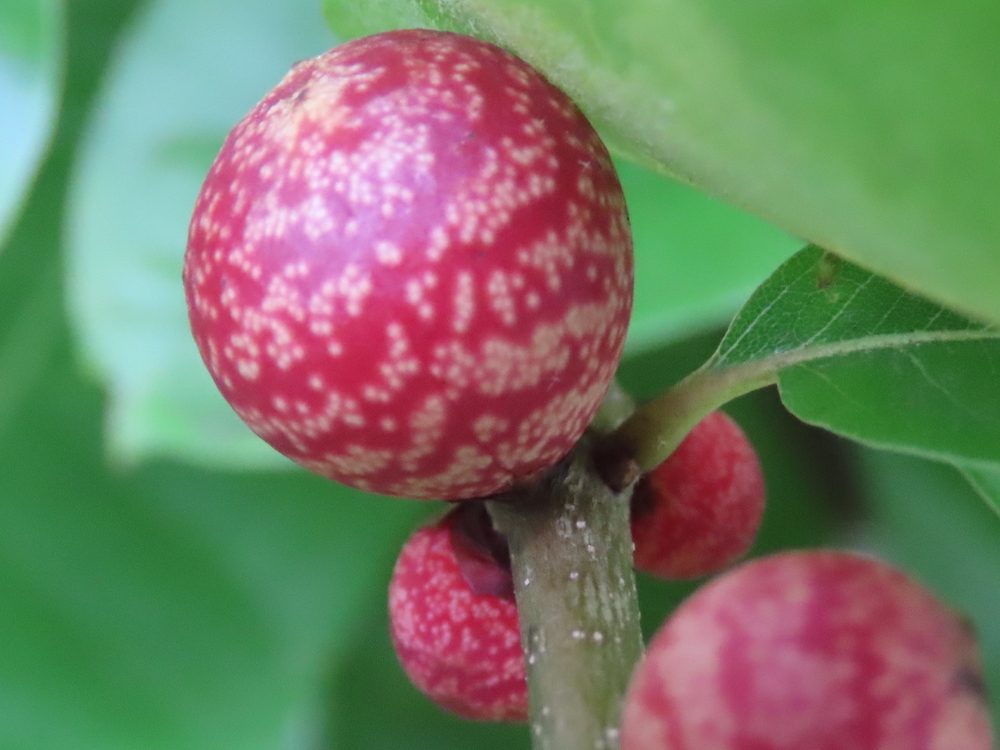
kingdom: Animalia
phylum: Arthropoda
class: Insecta
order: Hymenoptera
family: Cynipidae
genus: Kokkocynips
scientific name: Kokkocynips imbricariae
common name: Banded bullet gall wasp
